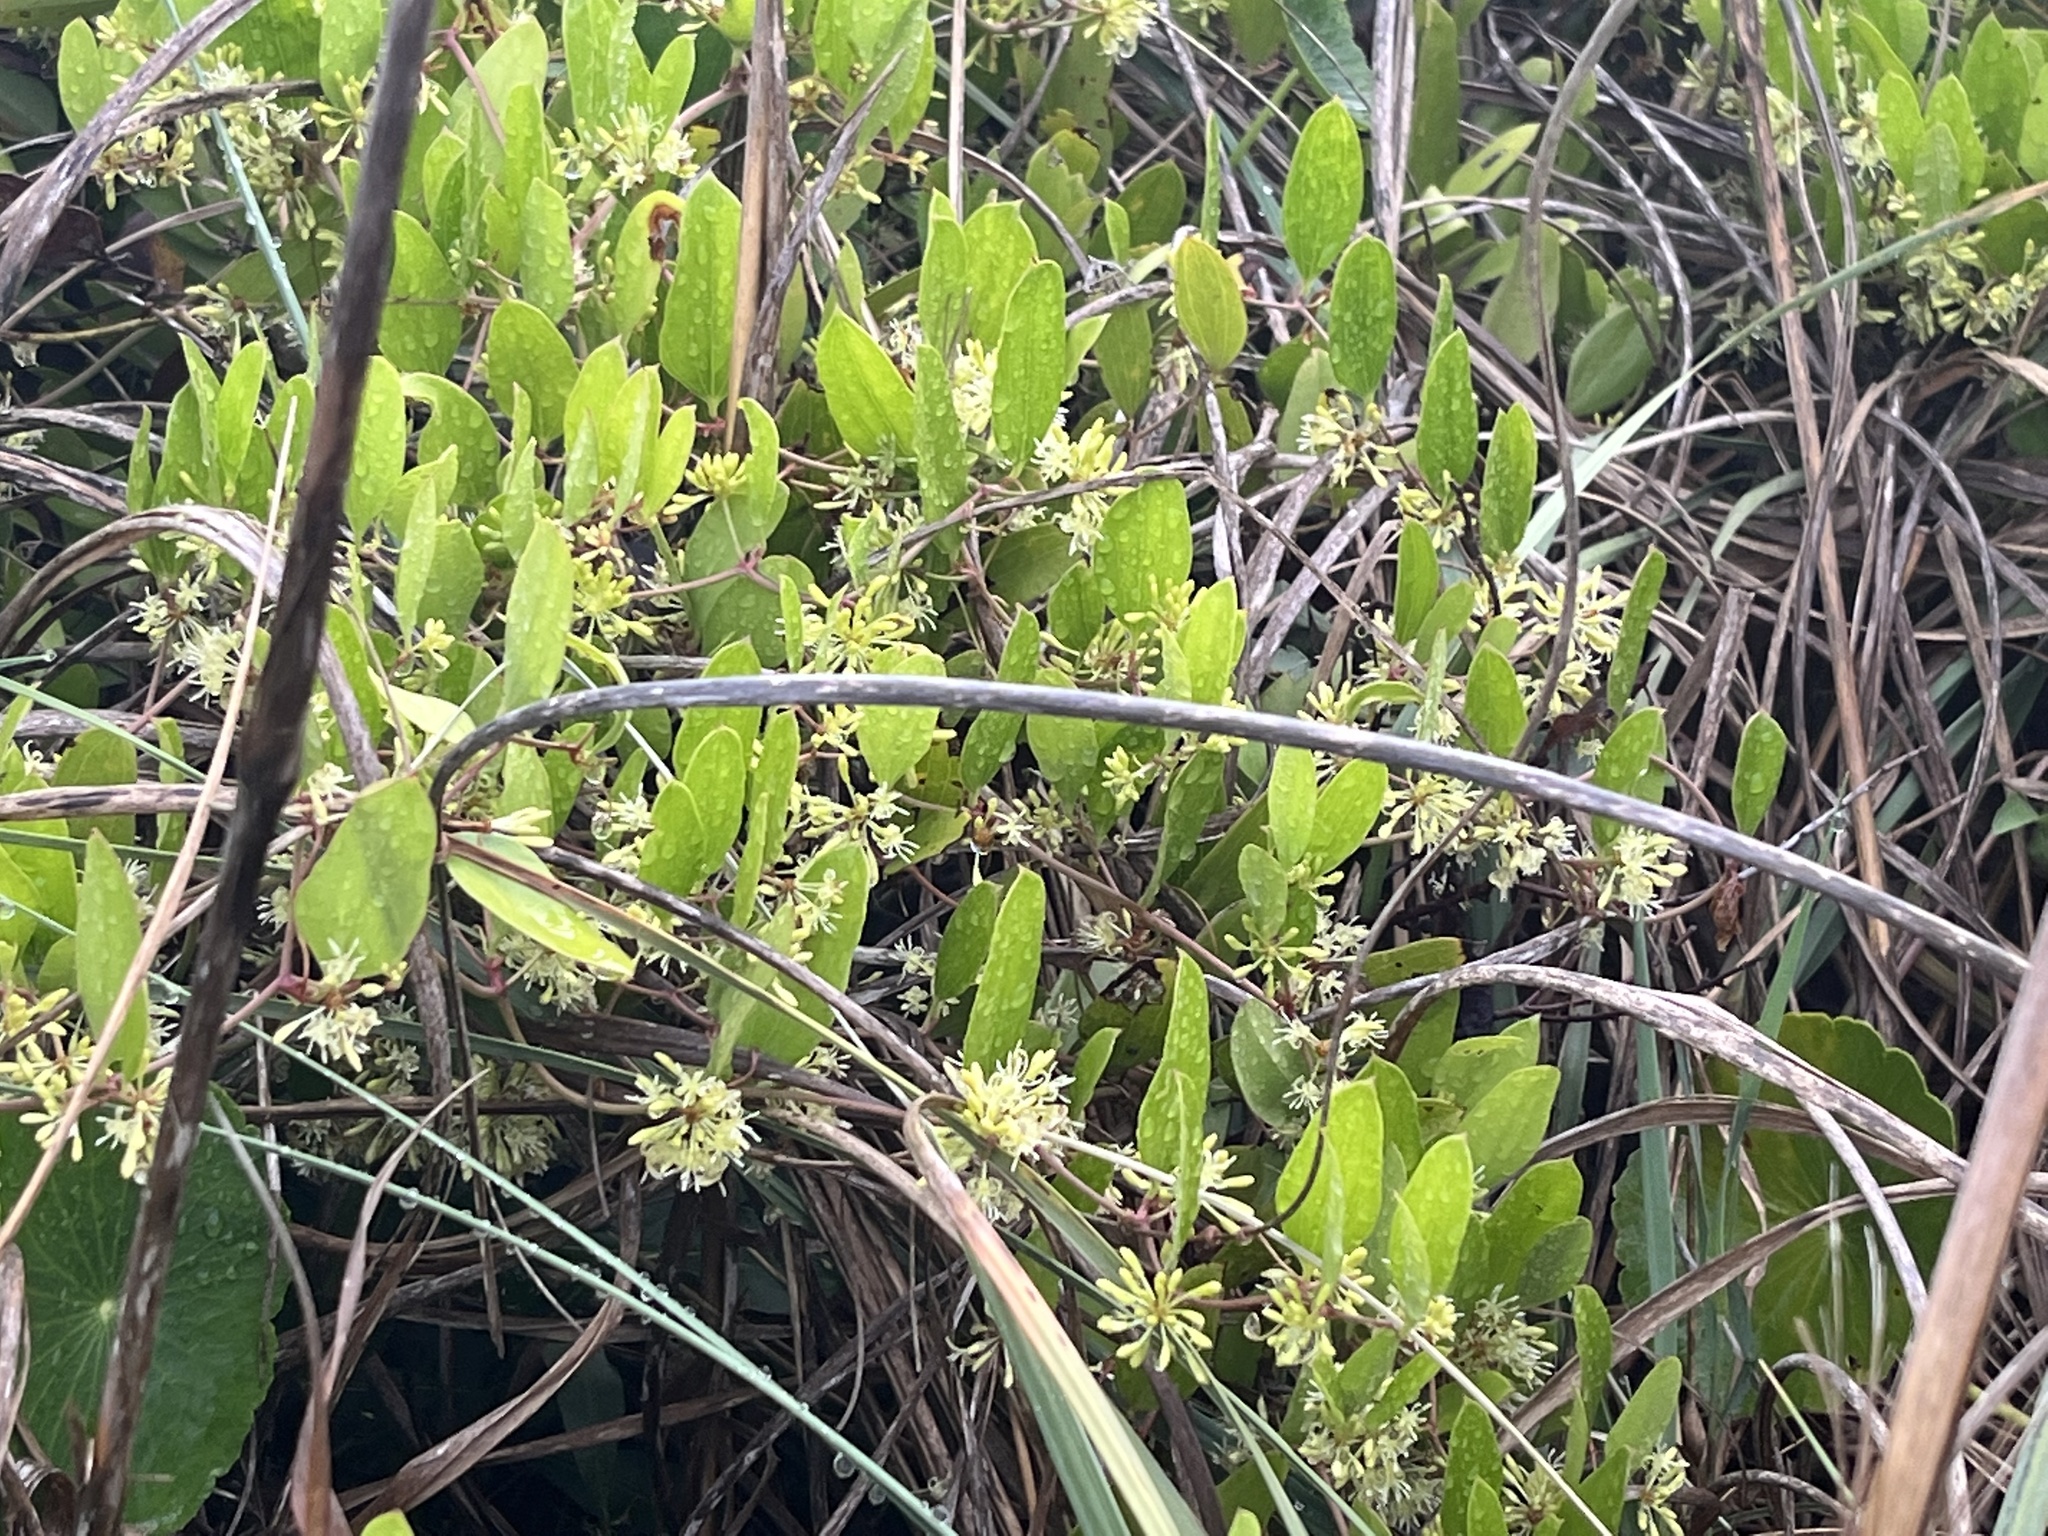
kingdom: Plantae
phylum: Tracheophyta
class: Liliopsida
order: Liliales
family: Smilacaceae
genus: Smilax
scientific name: Smilax auriculata
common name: Wild bamboo
